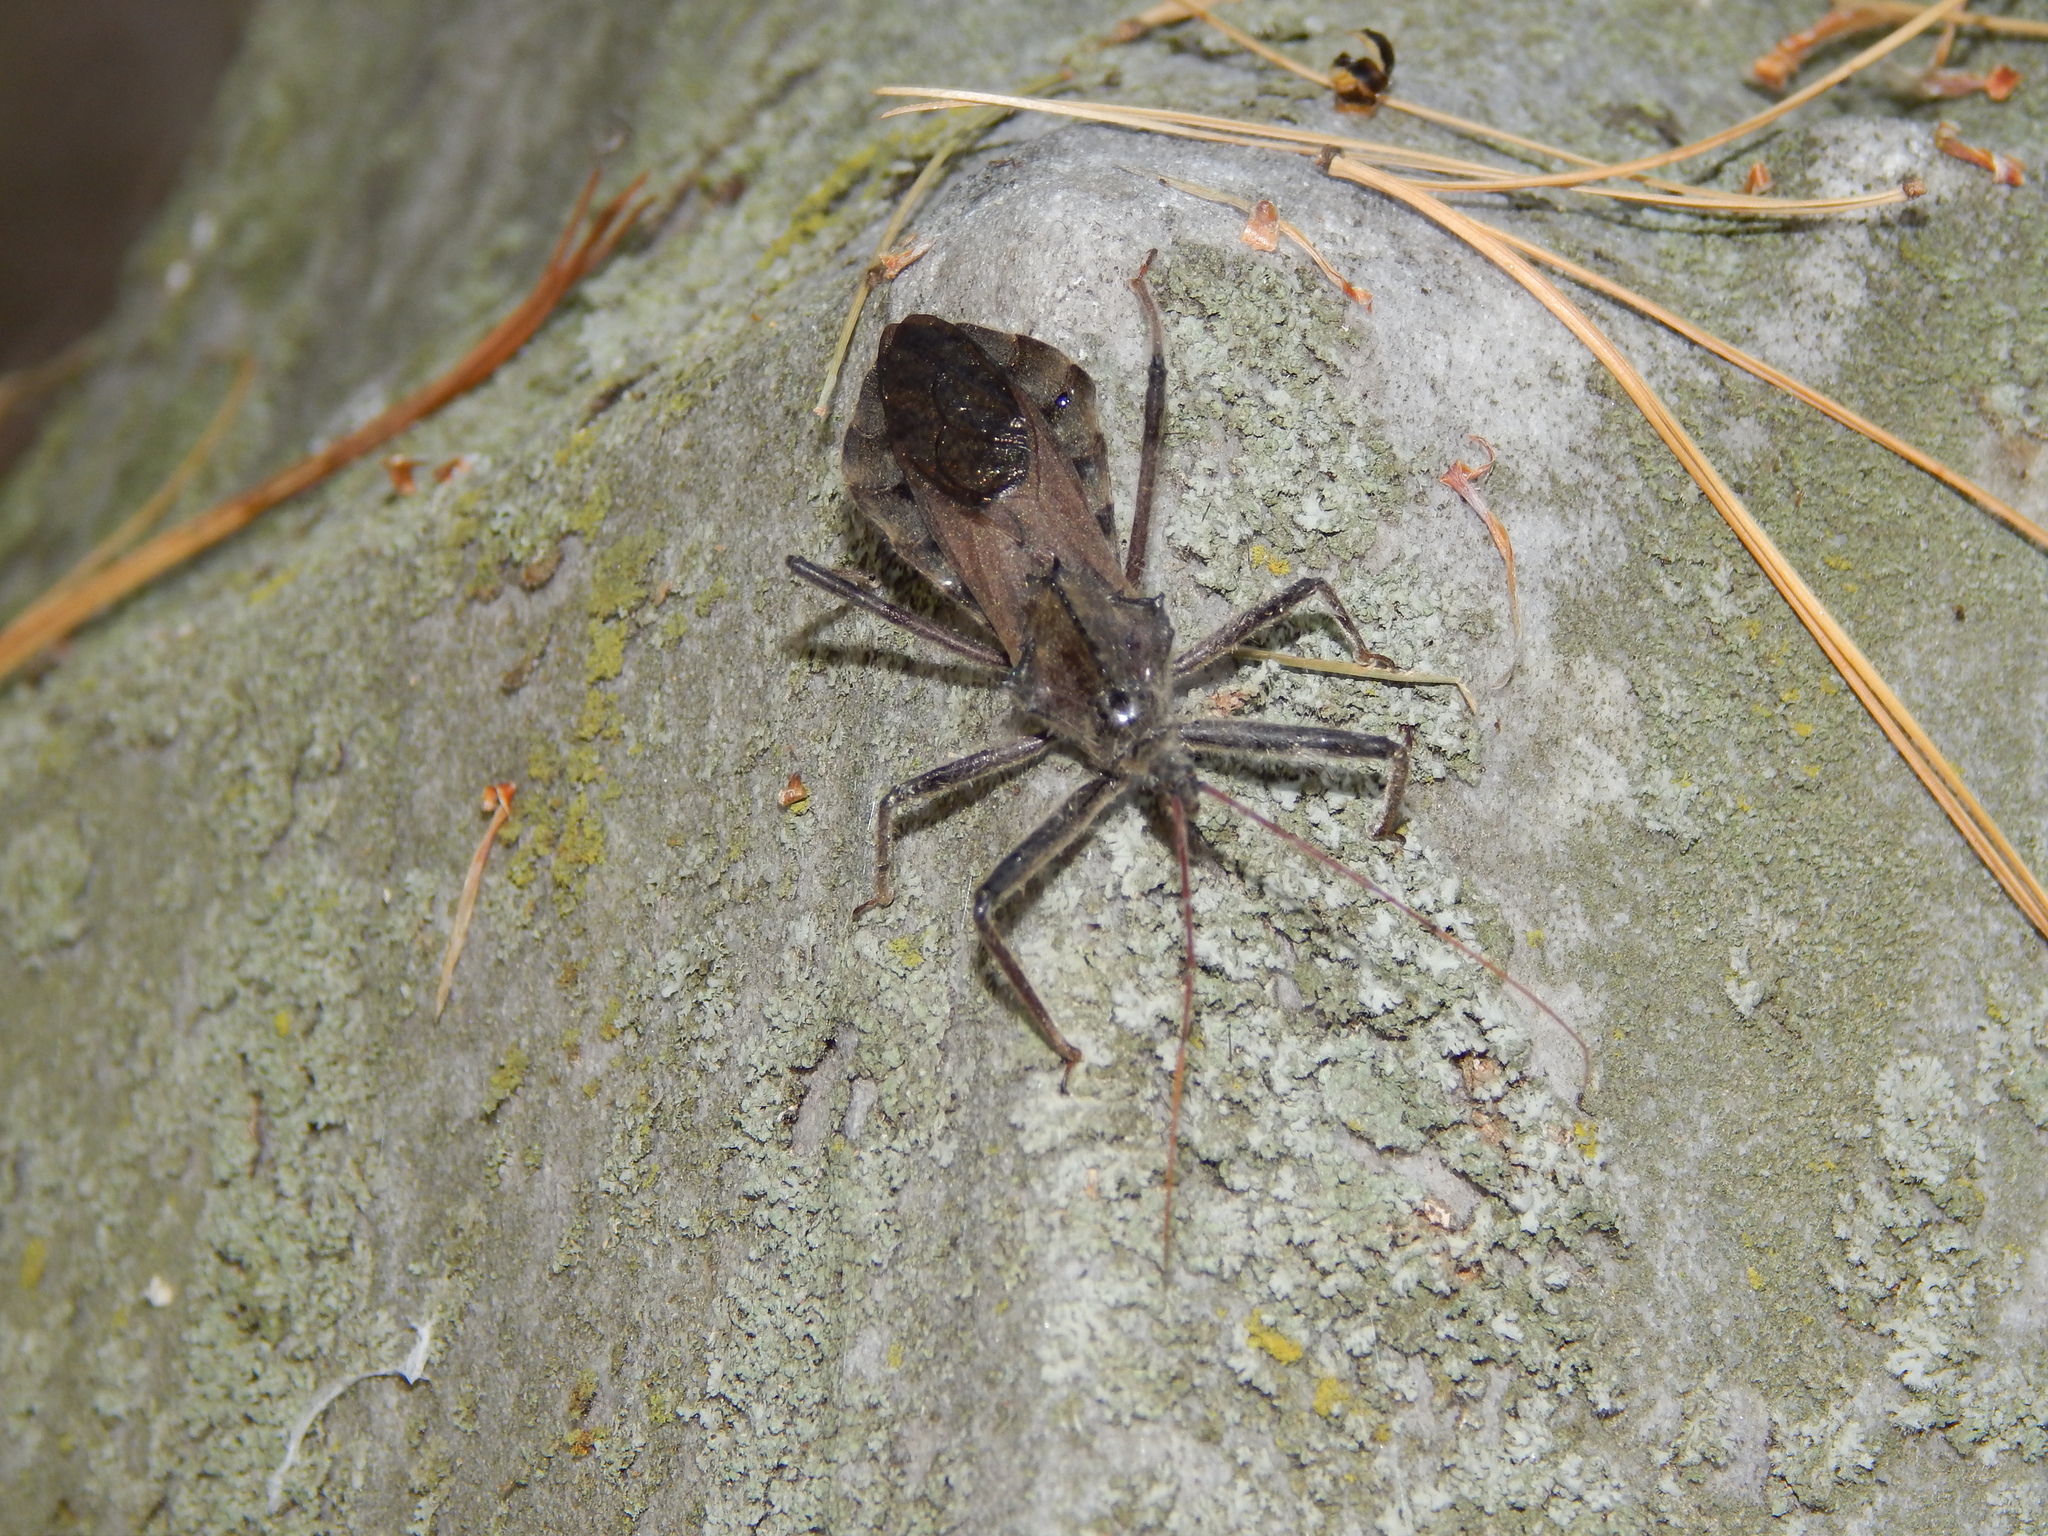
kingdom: Animalia
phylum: Arthropoda
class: Insecta
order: Hemiptera
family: Reduviidae
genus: Arilus
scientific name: Arilus cristatus
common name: North american wheel bug
